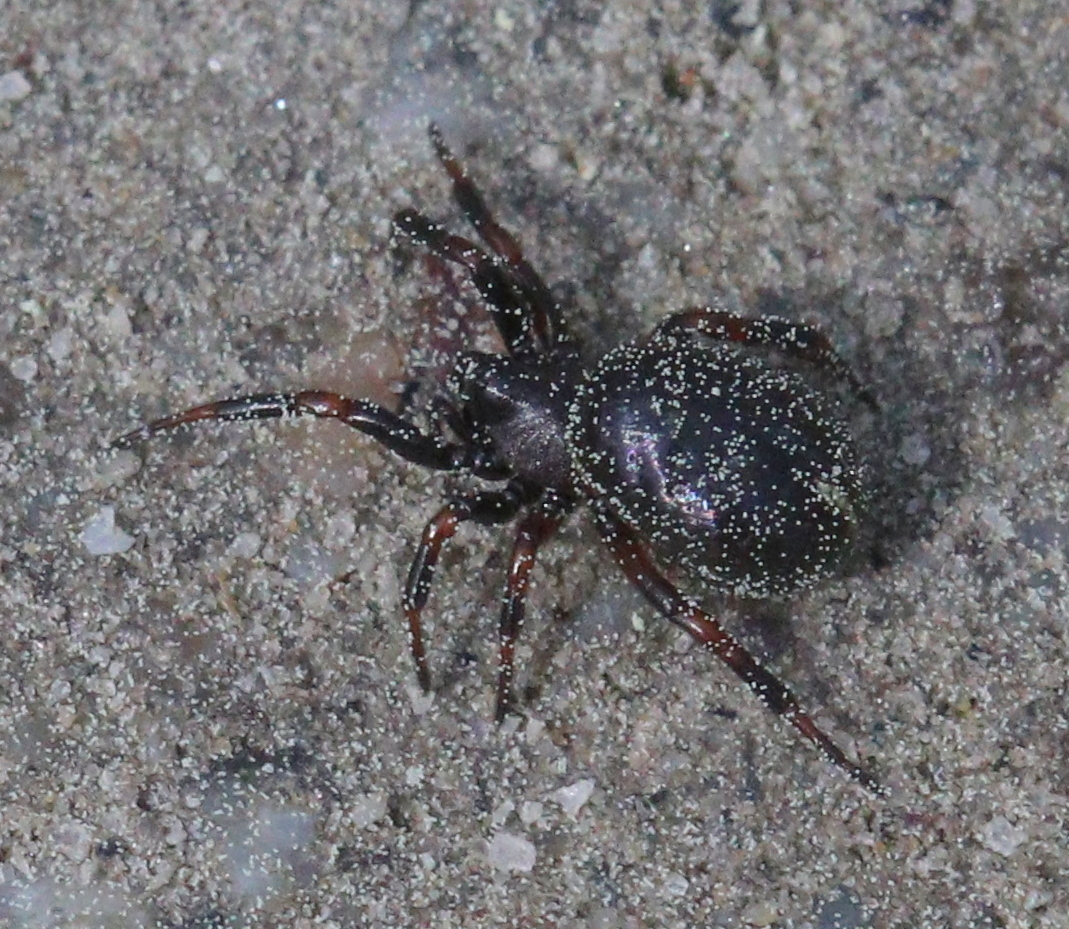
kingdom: Animalia
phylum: Arthropoda
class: Arachnida
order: Araneae
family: Theridiidae
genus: Asagena
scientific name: Asagena phalerata
